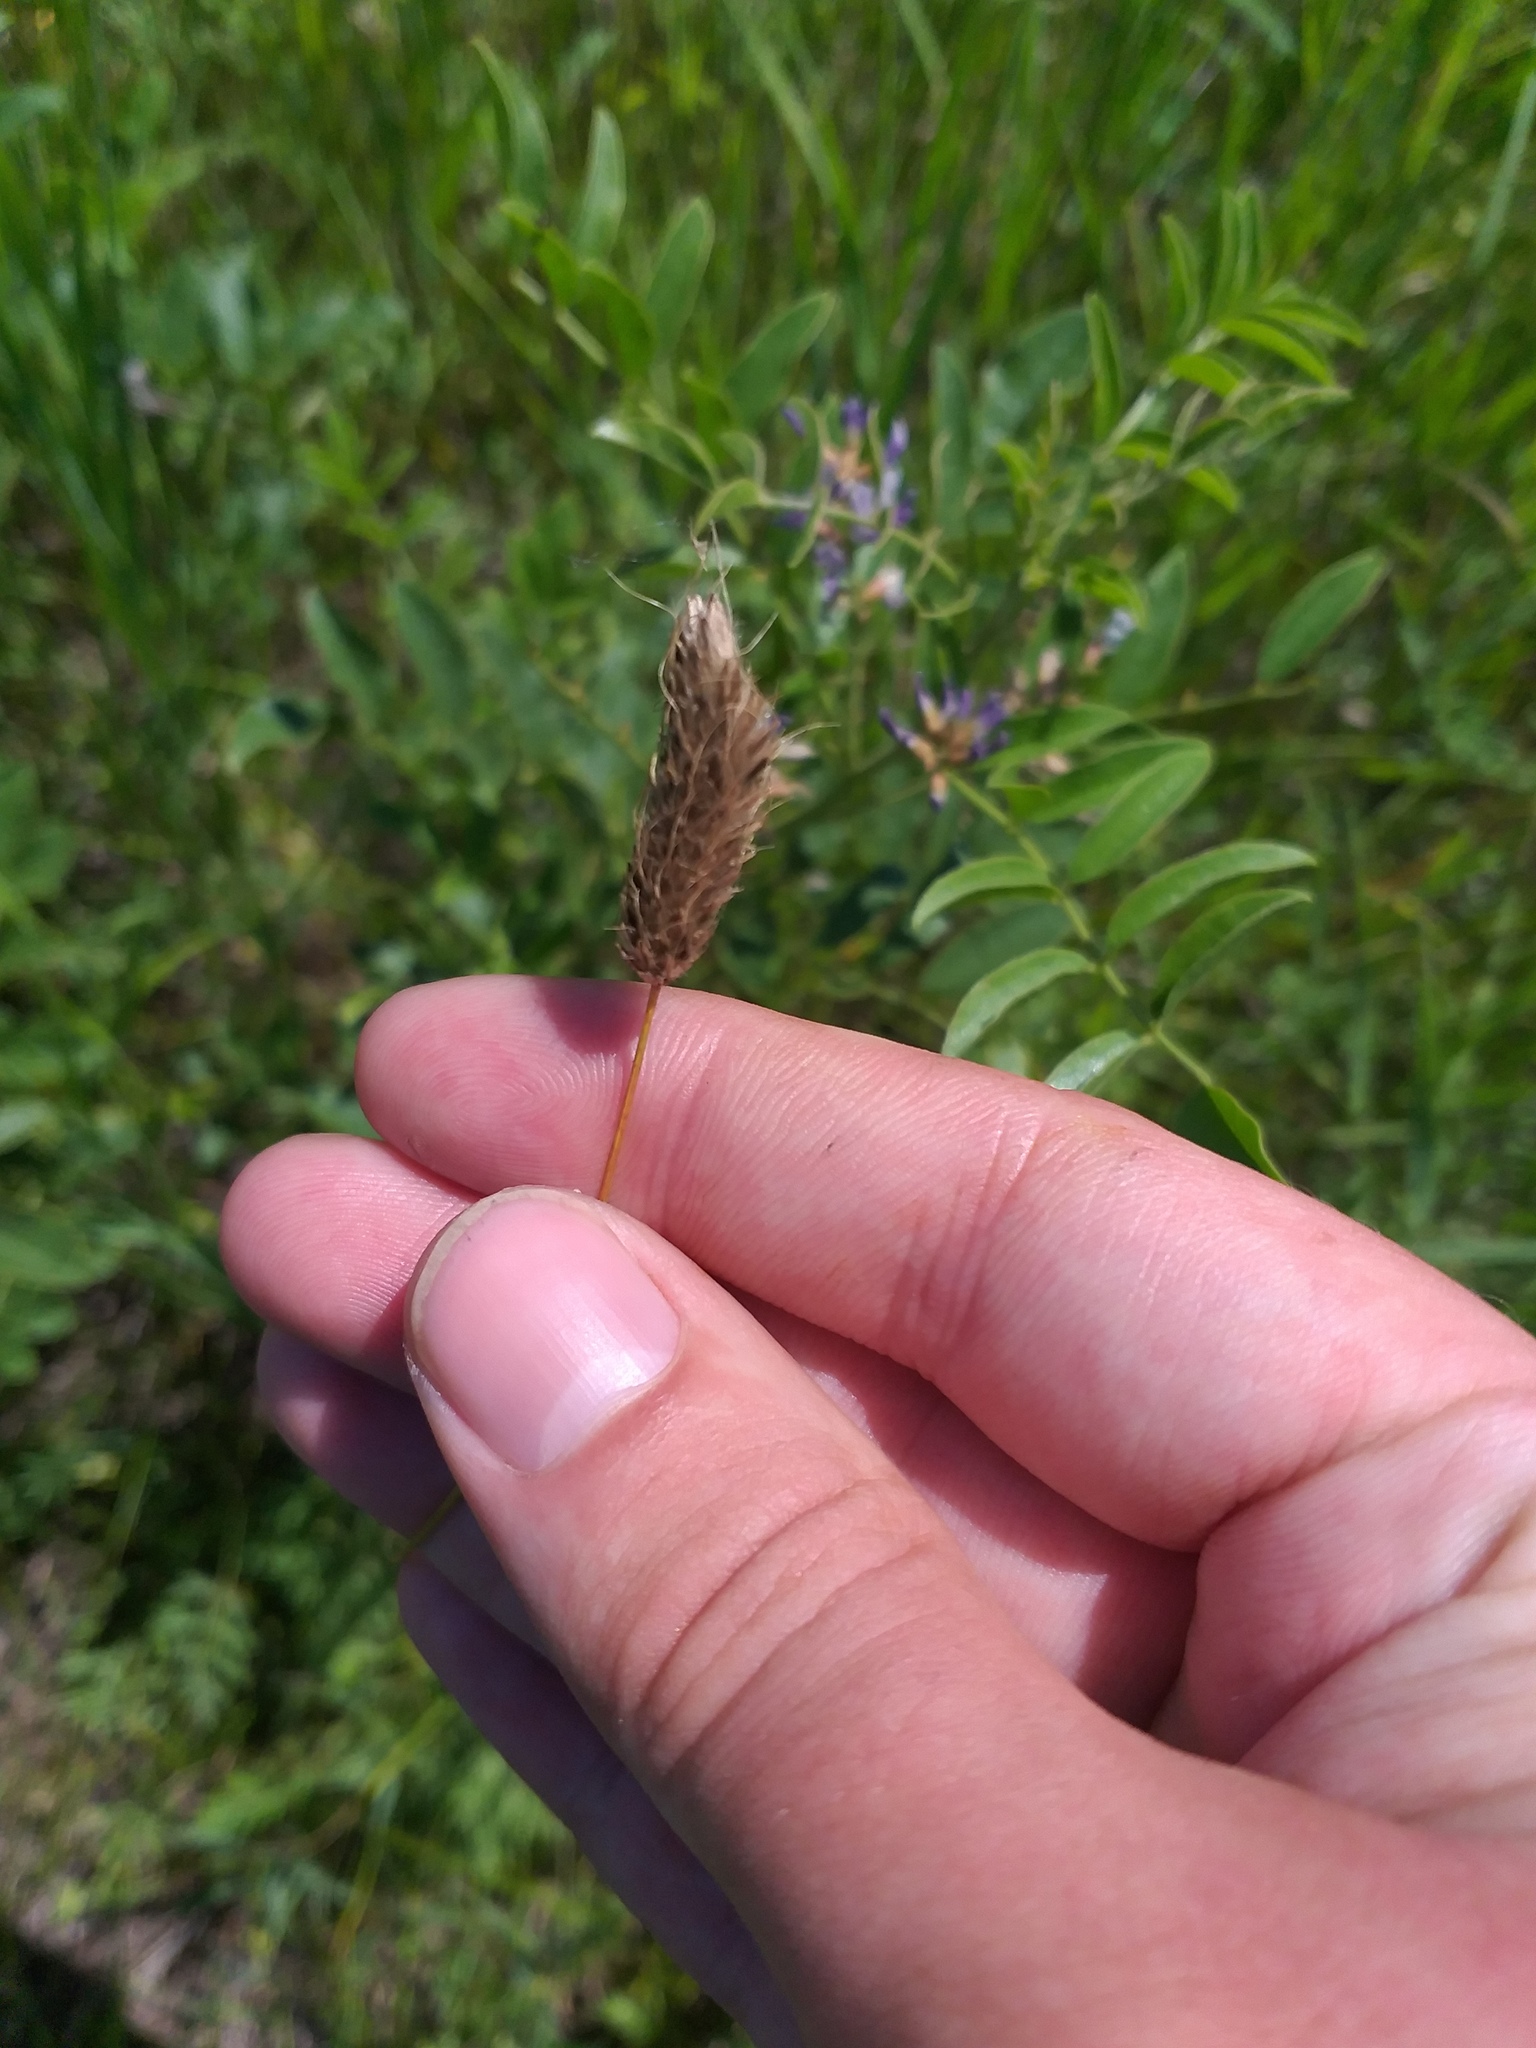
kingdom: Plantae
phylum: Tracheophyta
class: Liliopsida
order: Poales
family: Poaceae
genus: Alopecurus
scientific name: Alopecurus pratensis
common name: Meadow foxtail
